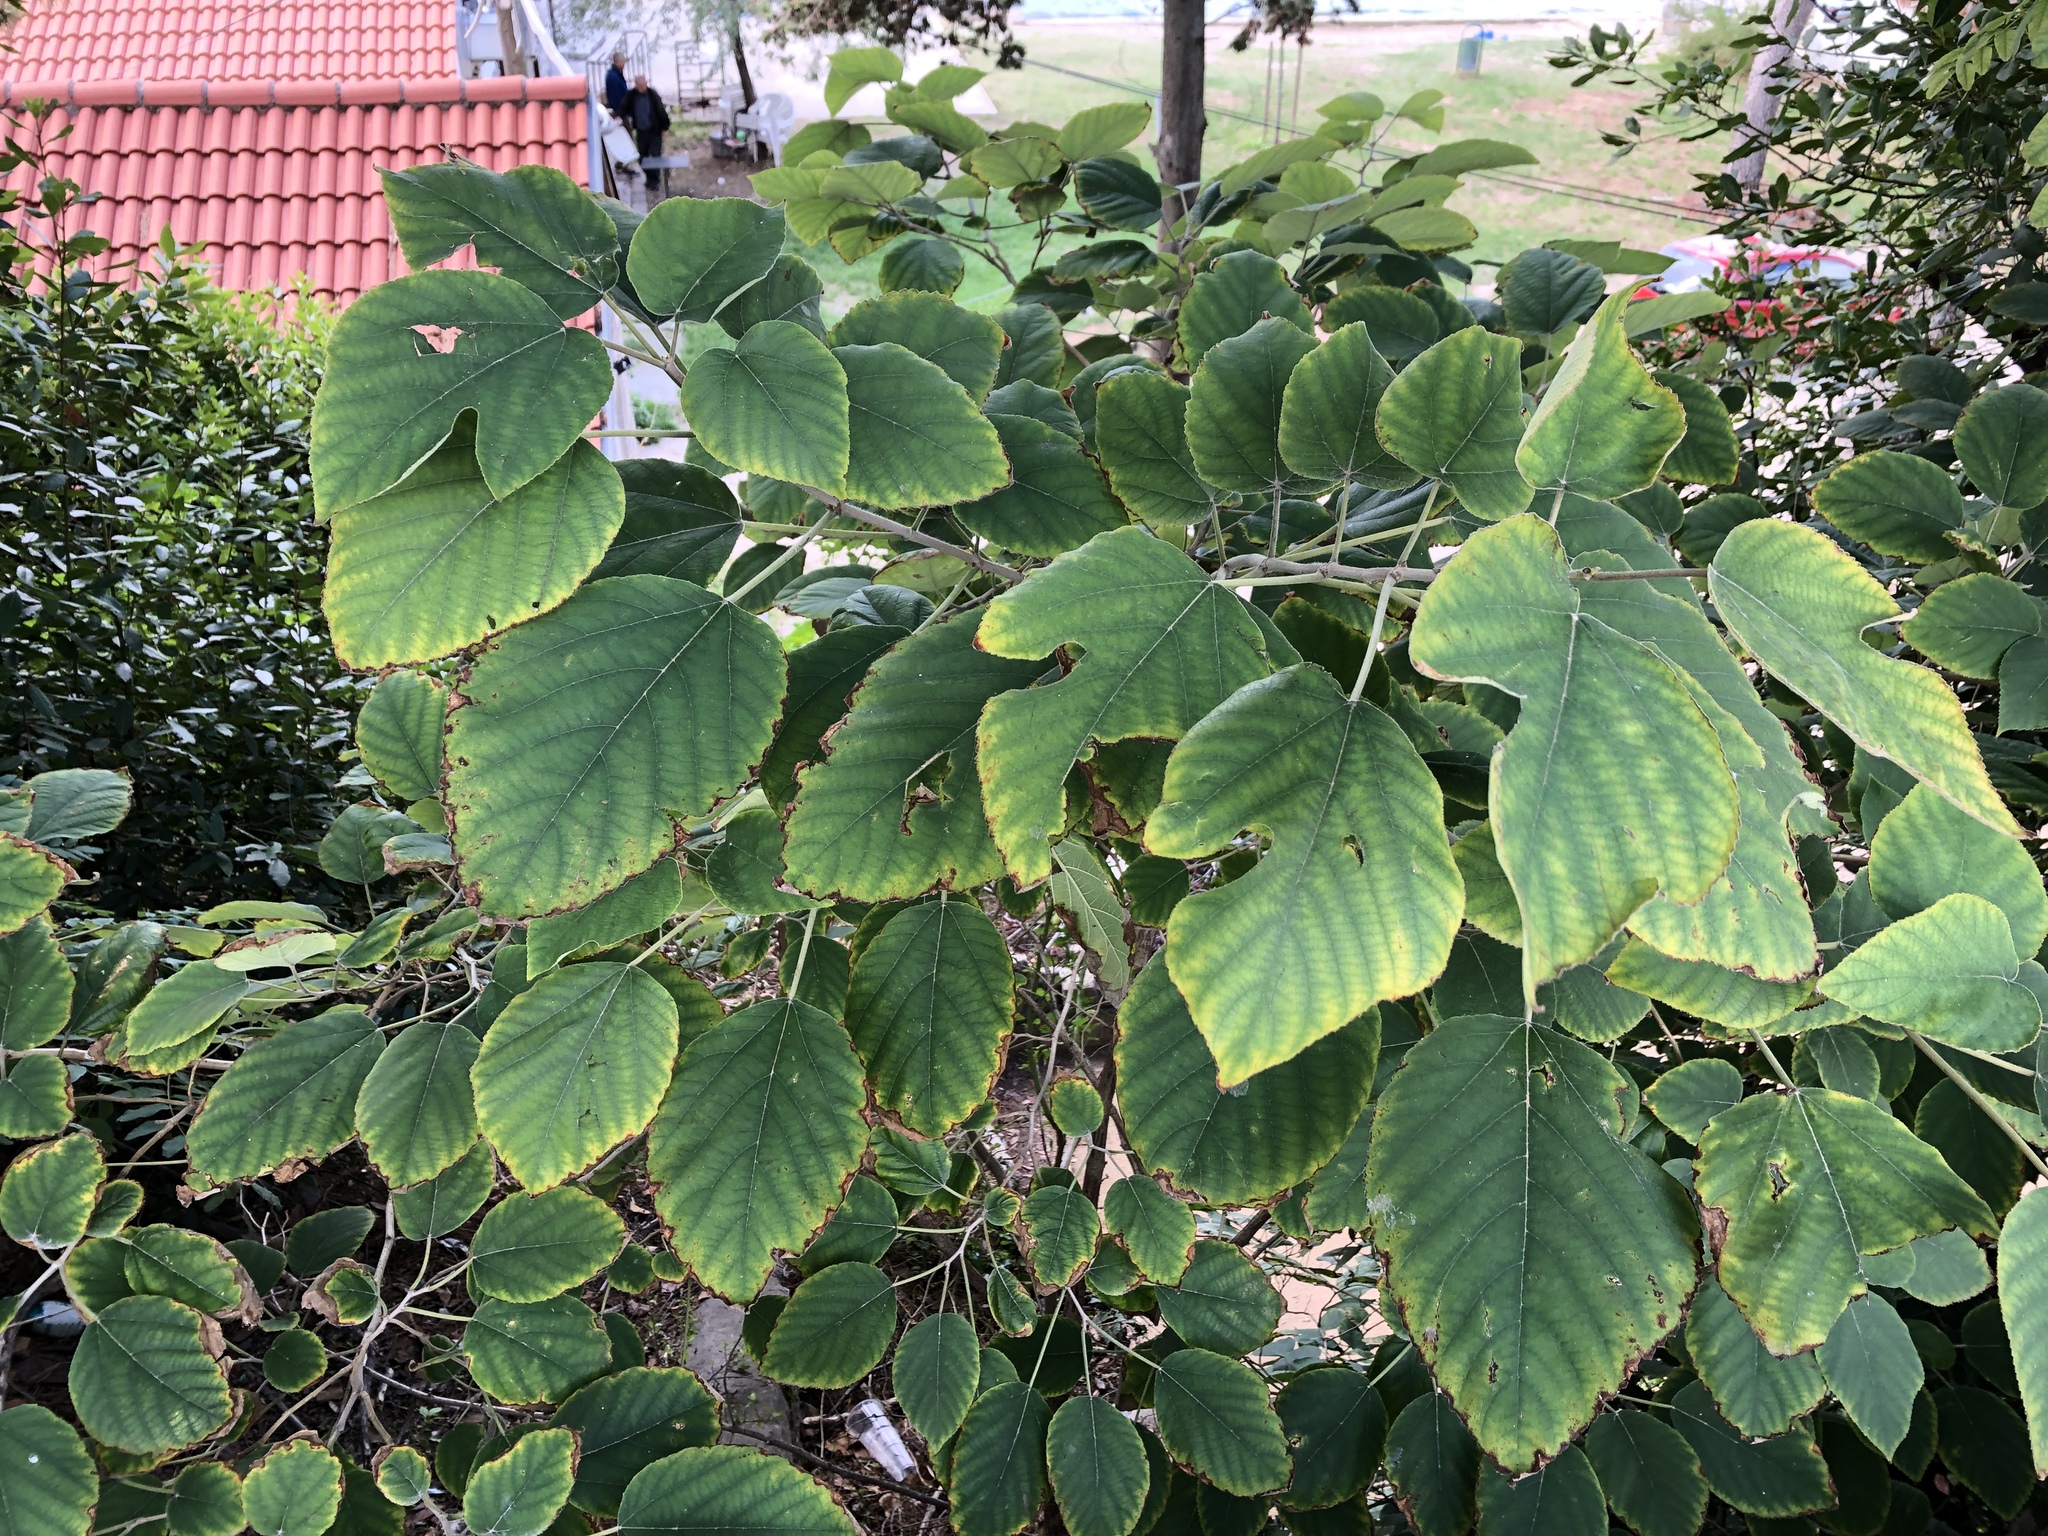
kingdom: Plantae
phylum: Tracheophyta
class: Magnoliopsida
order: Rosales
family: Moraceae
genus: Broussonetia
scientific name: Broussonetia papyrifera
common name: Paper mulberry
